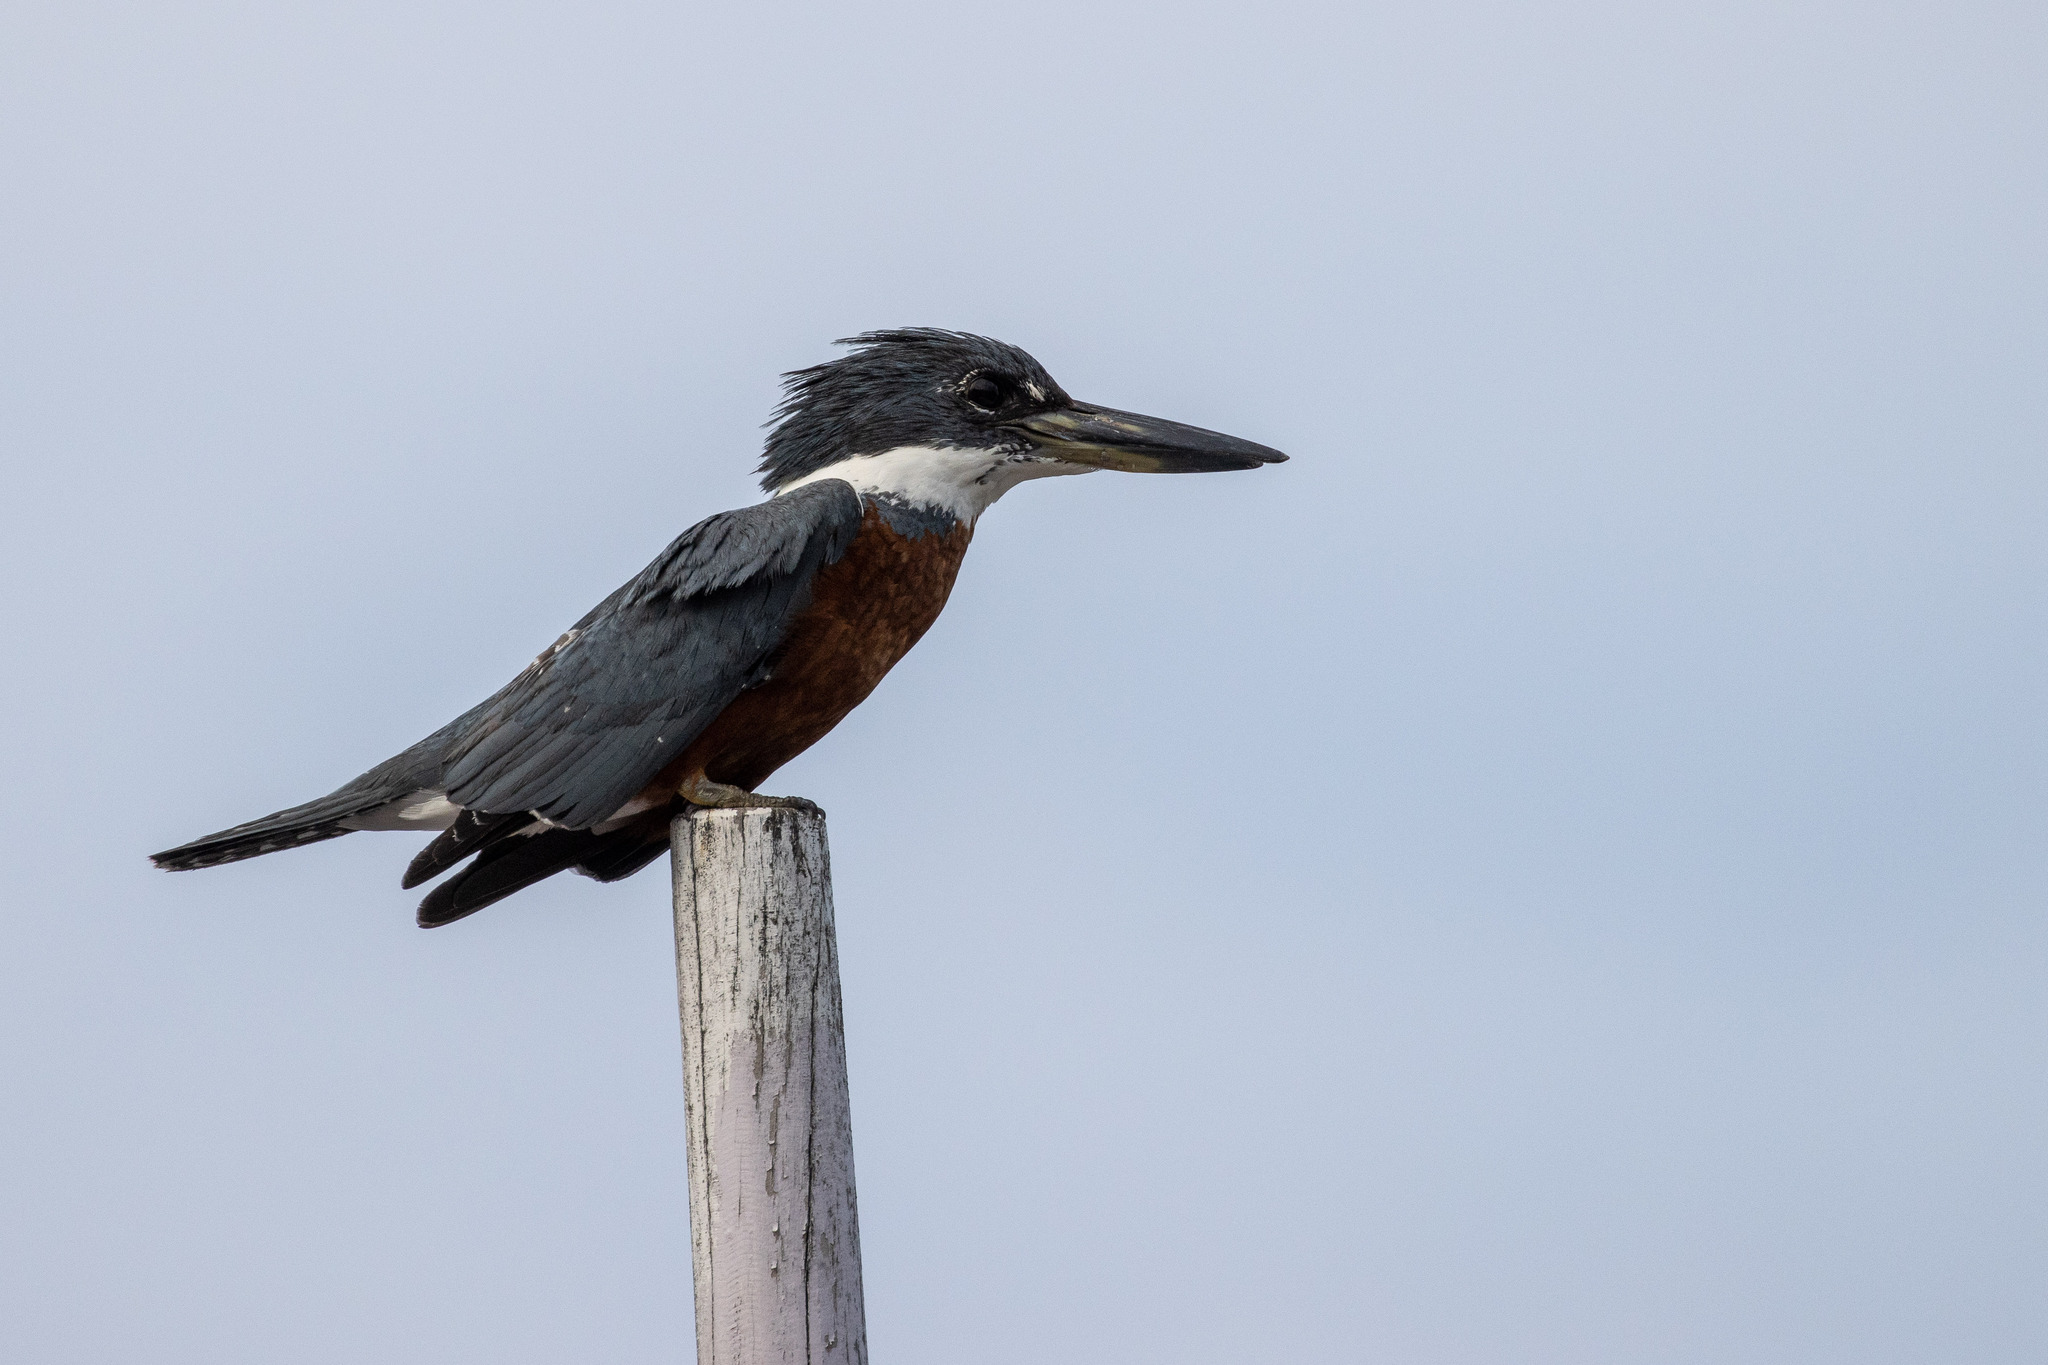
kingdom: Animalia
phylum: Chordata
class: Aves
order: Coraciiformes
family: Alcedinidae
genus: Megaceryle
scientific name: Megaceryle torquata
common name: Ringed kingfisher
